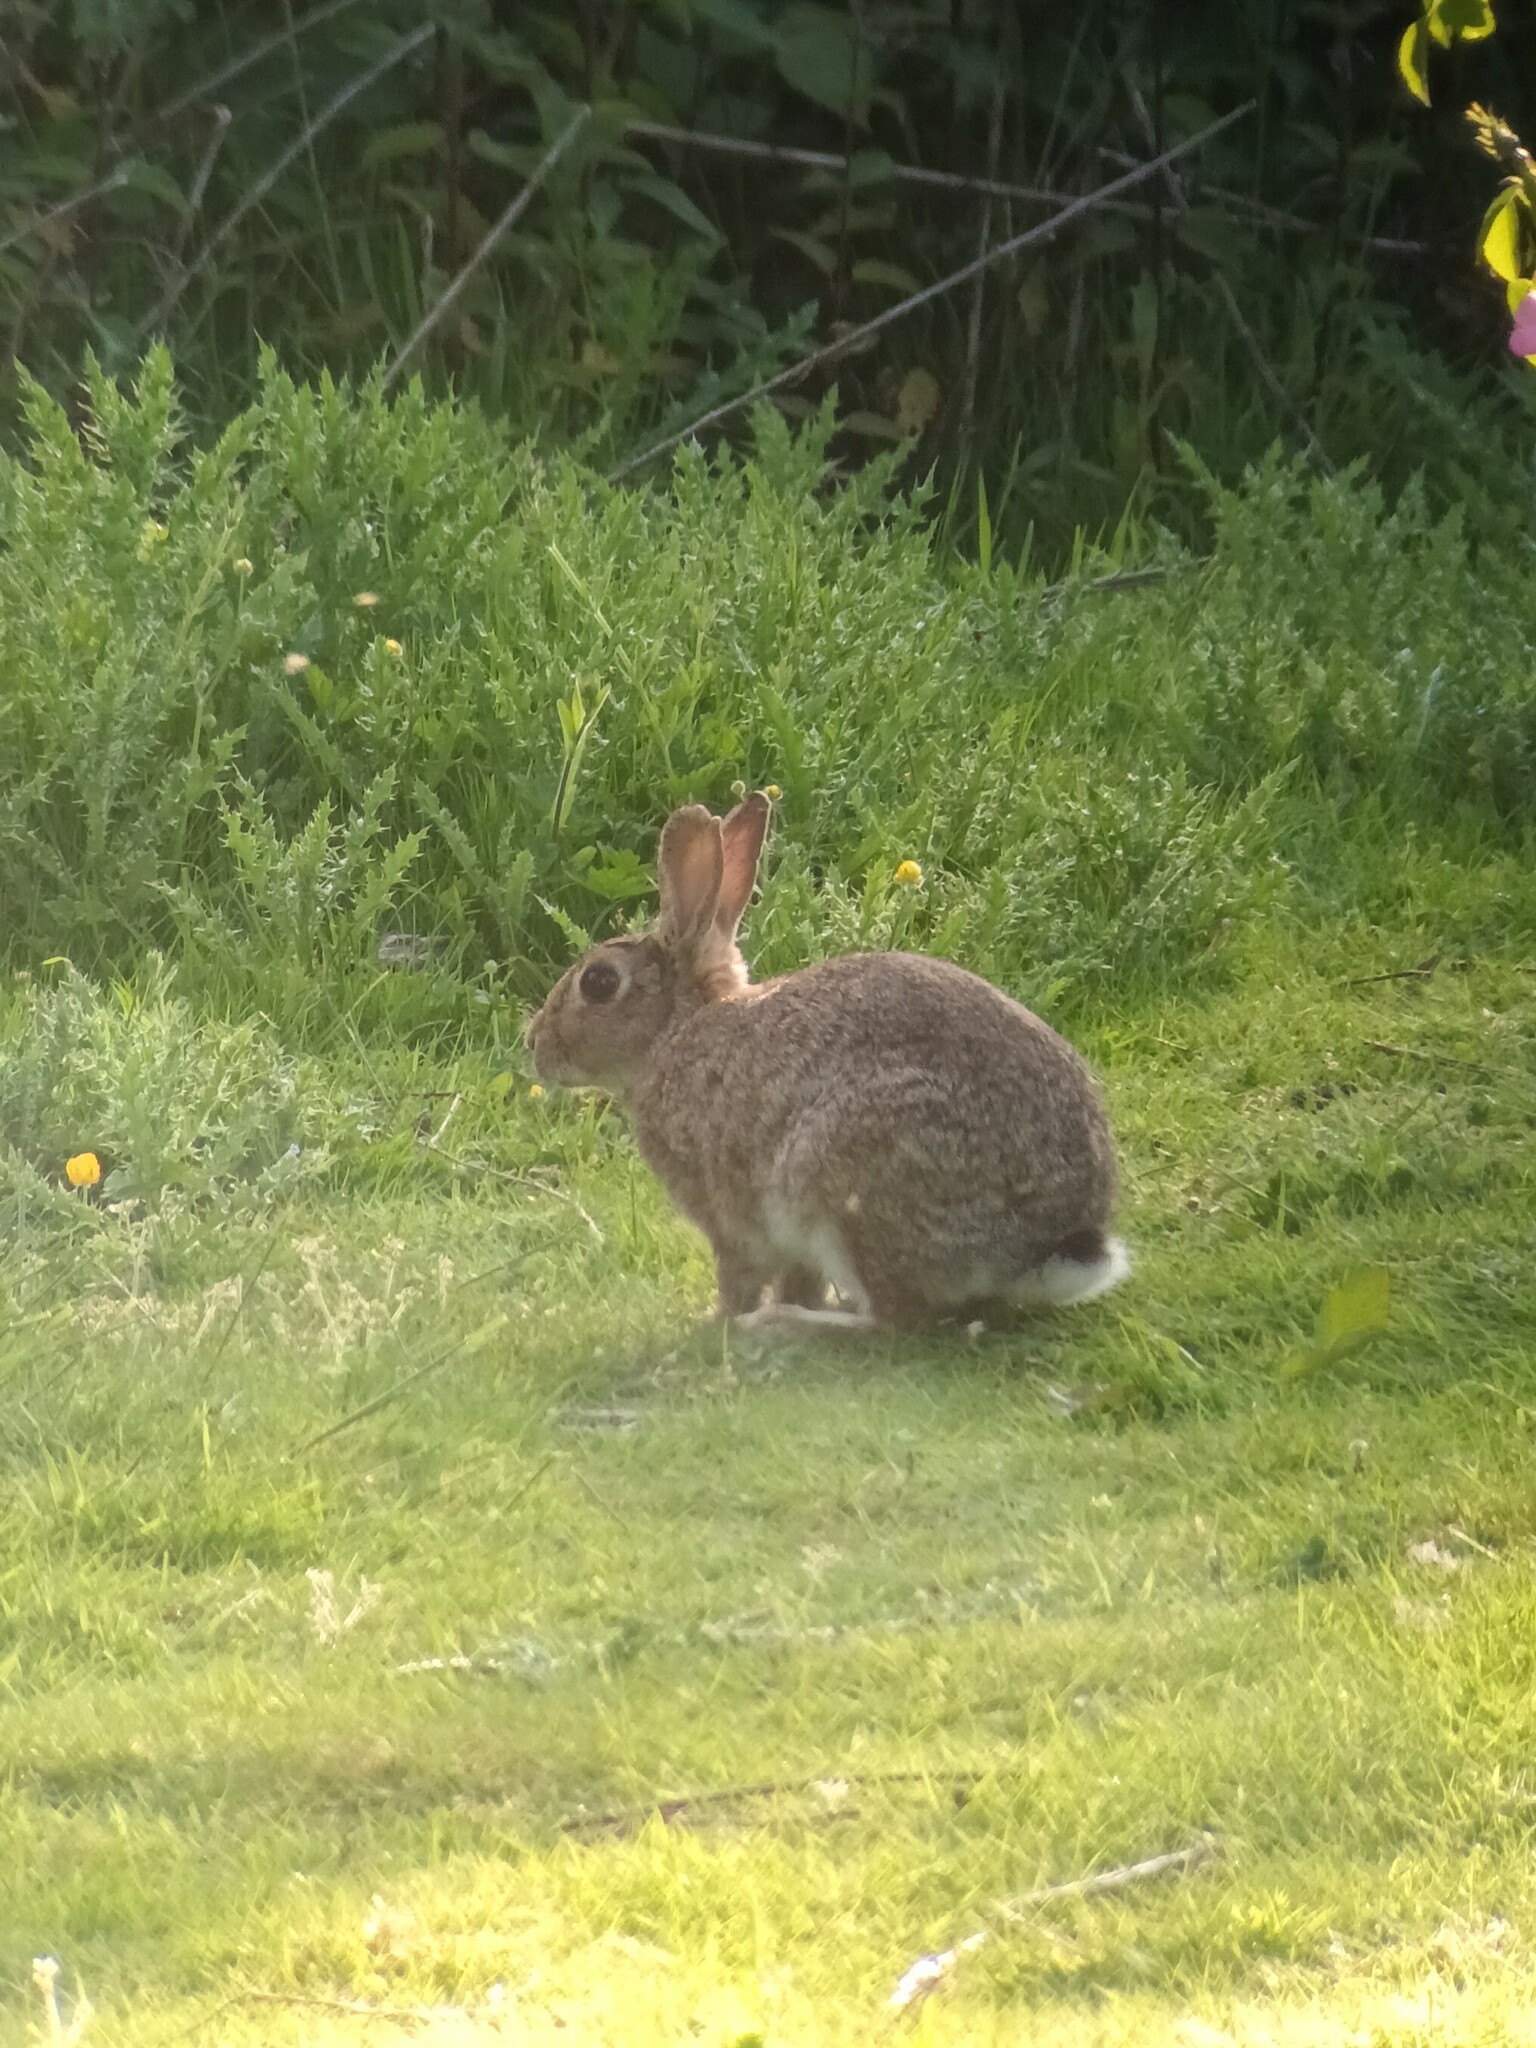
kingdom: Animalia
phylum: Chordata
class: Mammalia
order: Lagomorpha
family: Leporidae
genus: Oryctolagus
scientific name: Oryctolagus cuniculus
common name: European rabbit
